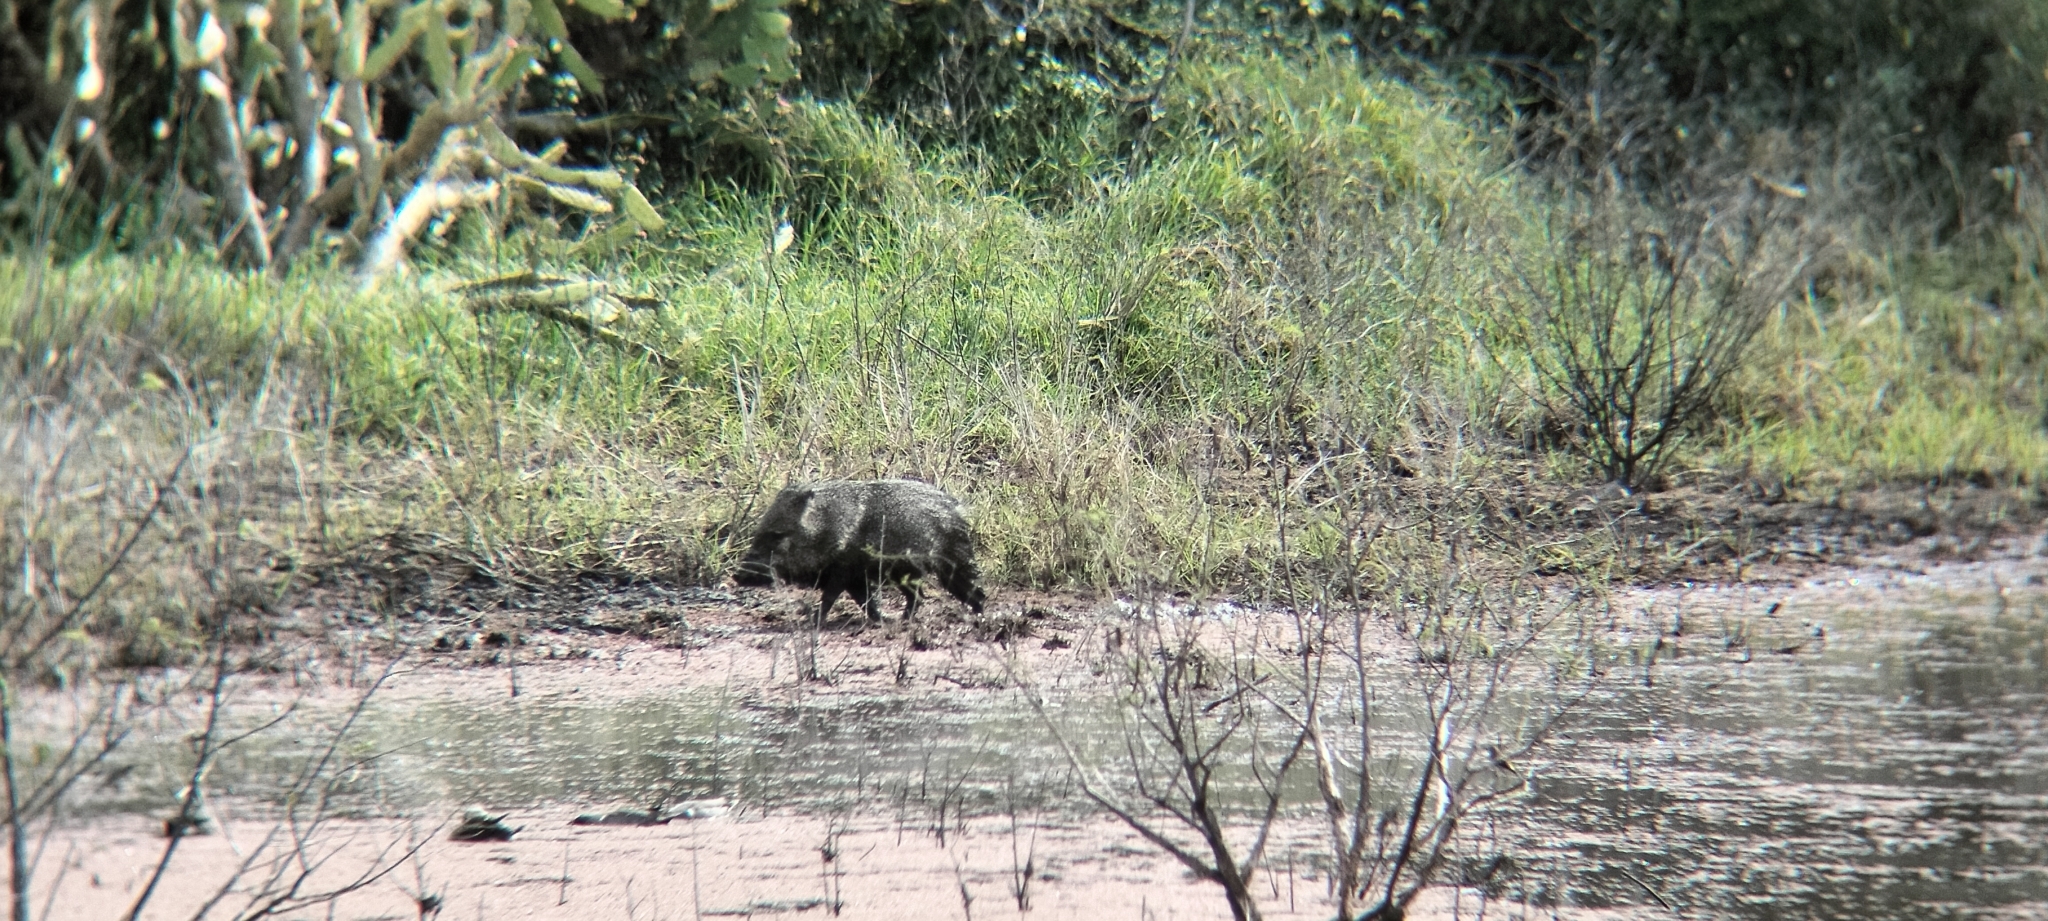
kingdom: Animalia
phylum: Chordata
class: Mammalia
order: Artiodactyla
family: Tayassuidae
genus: Pecari
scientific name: Pecari tajacu
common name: Collared peccary
